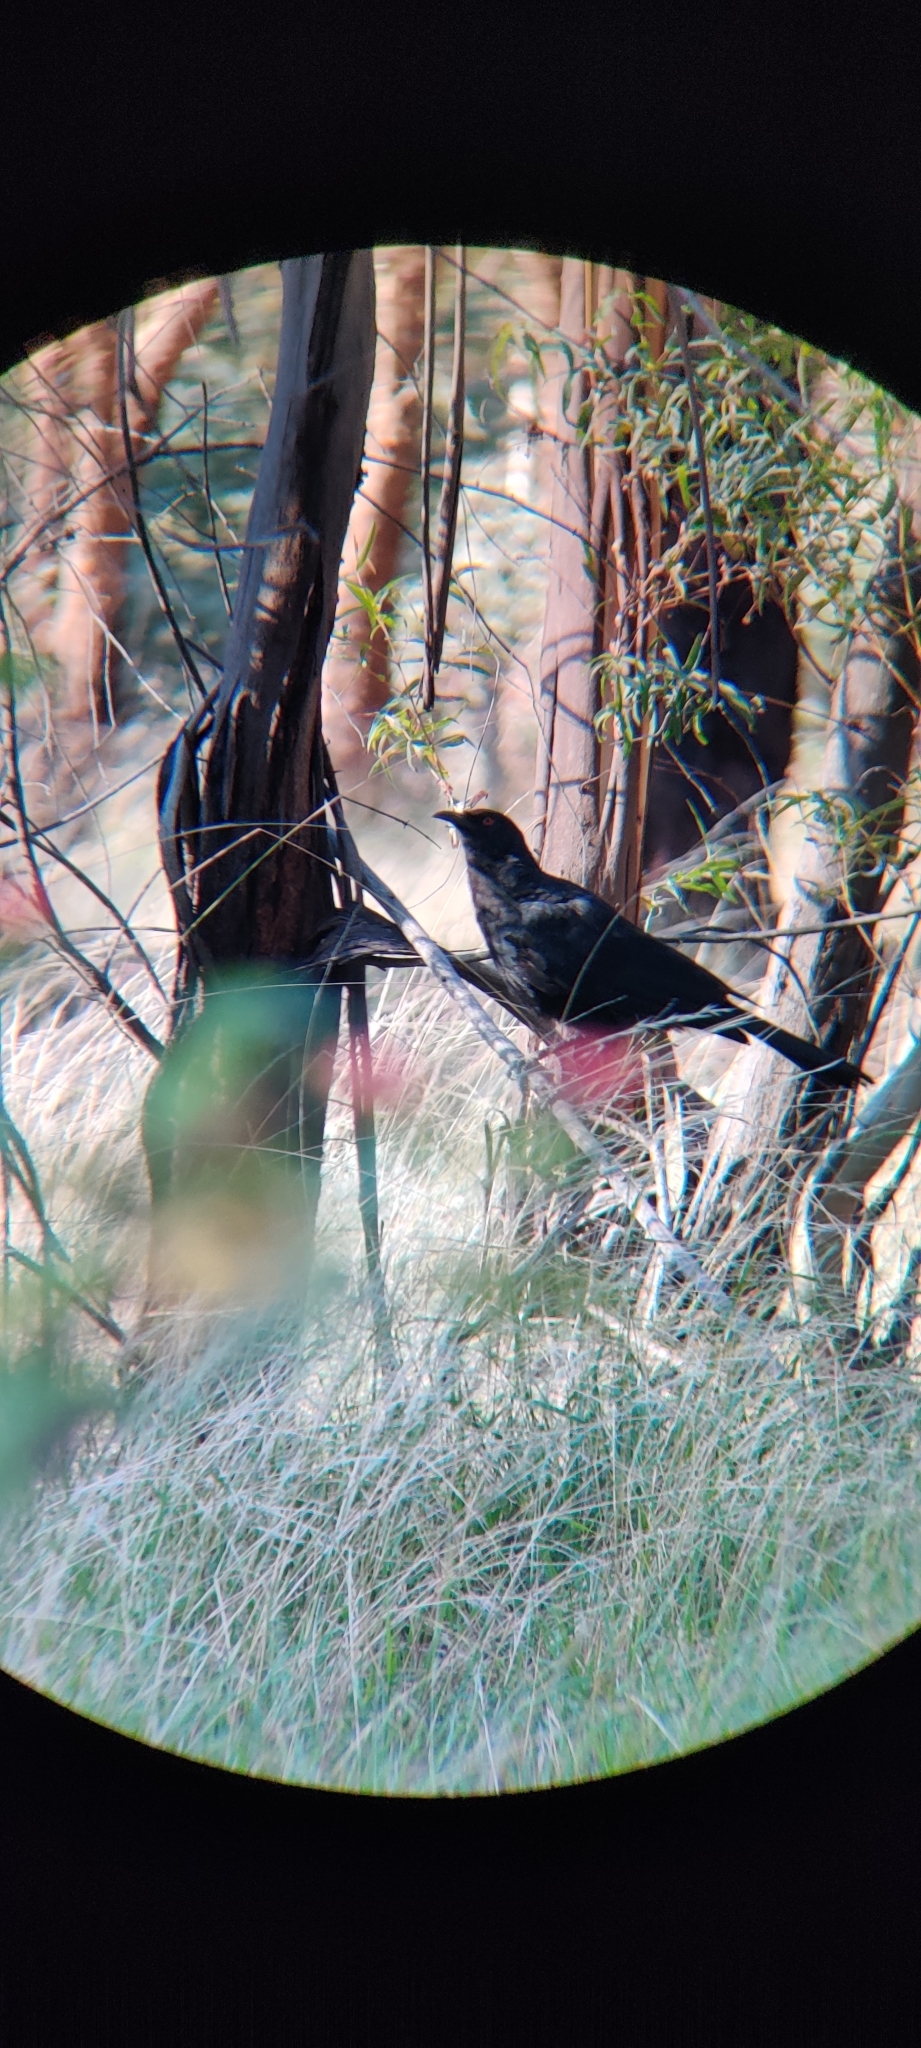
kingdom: Animalia
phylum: Chordata
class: Aves
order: Passeriformes
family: Corcoracidae
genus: Corcorax
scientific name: Corcorax melanoramphos
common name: White-winged chough
